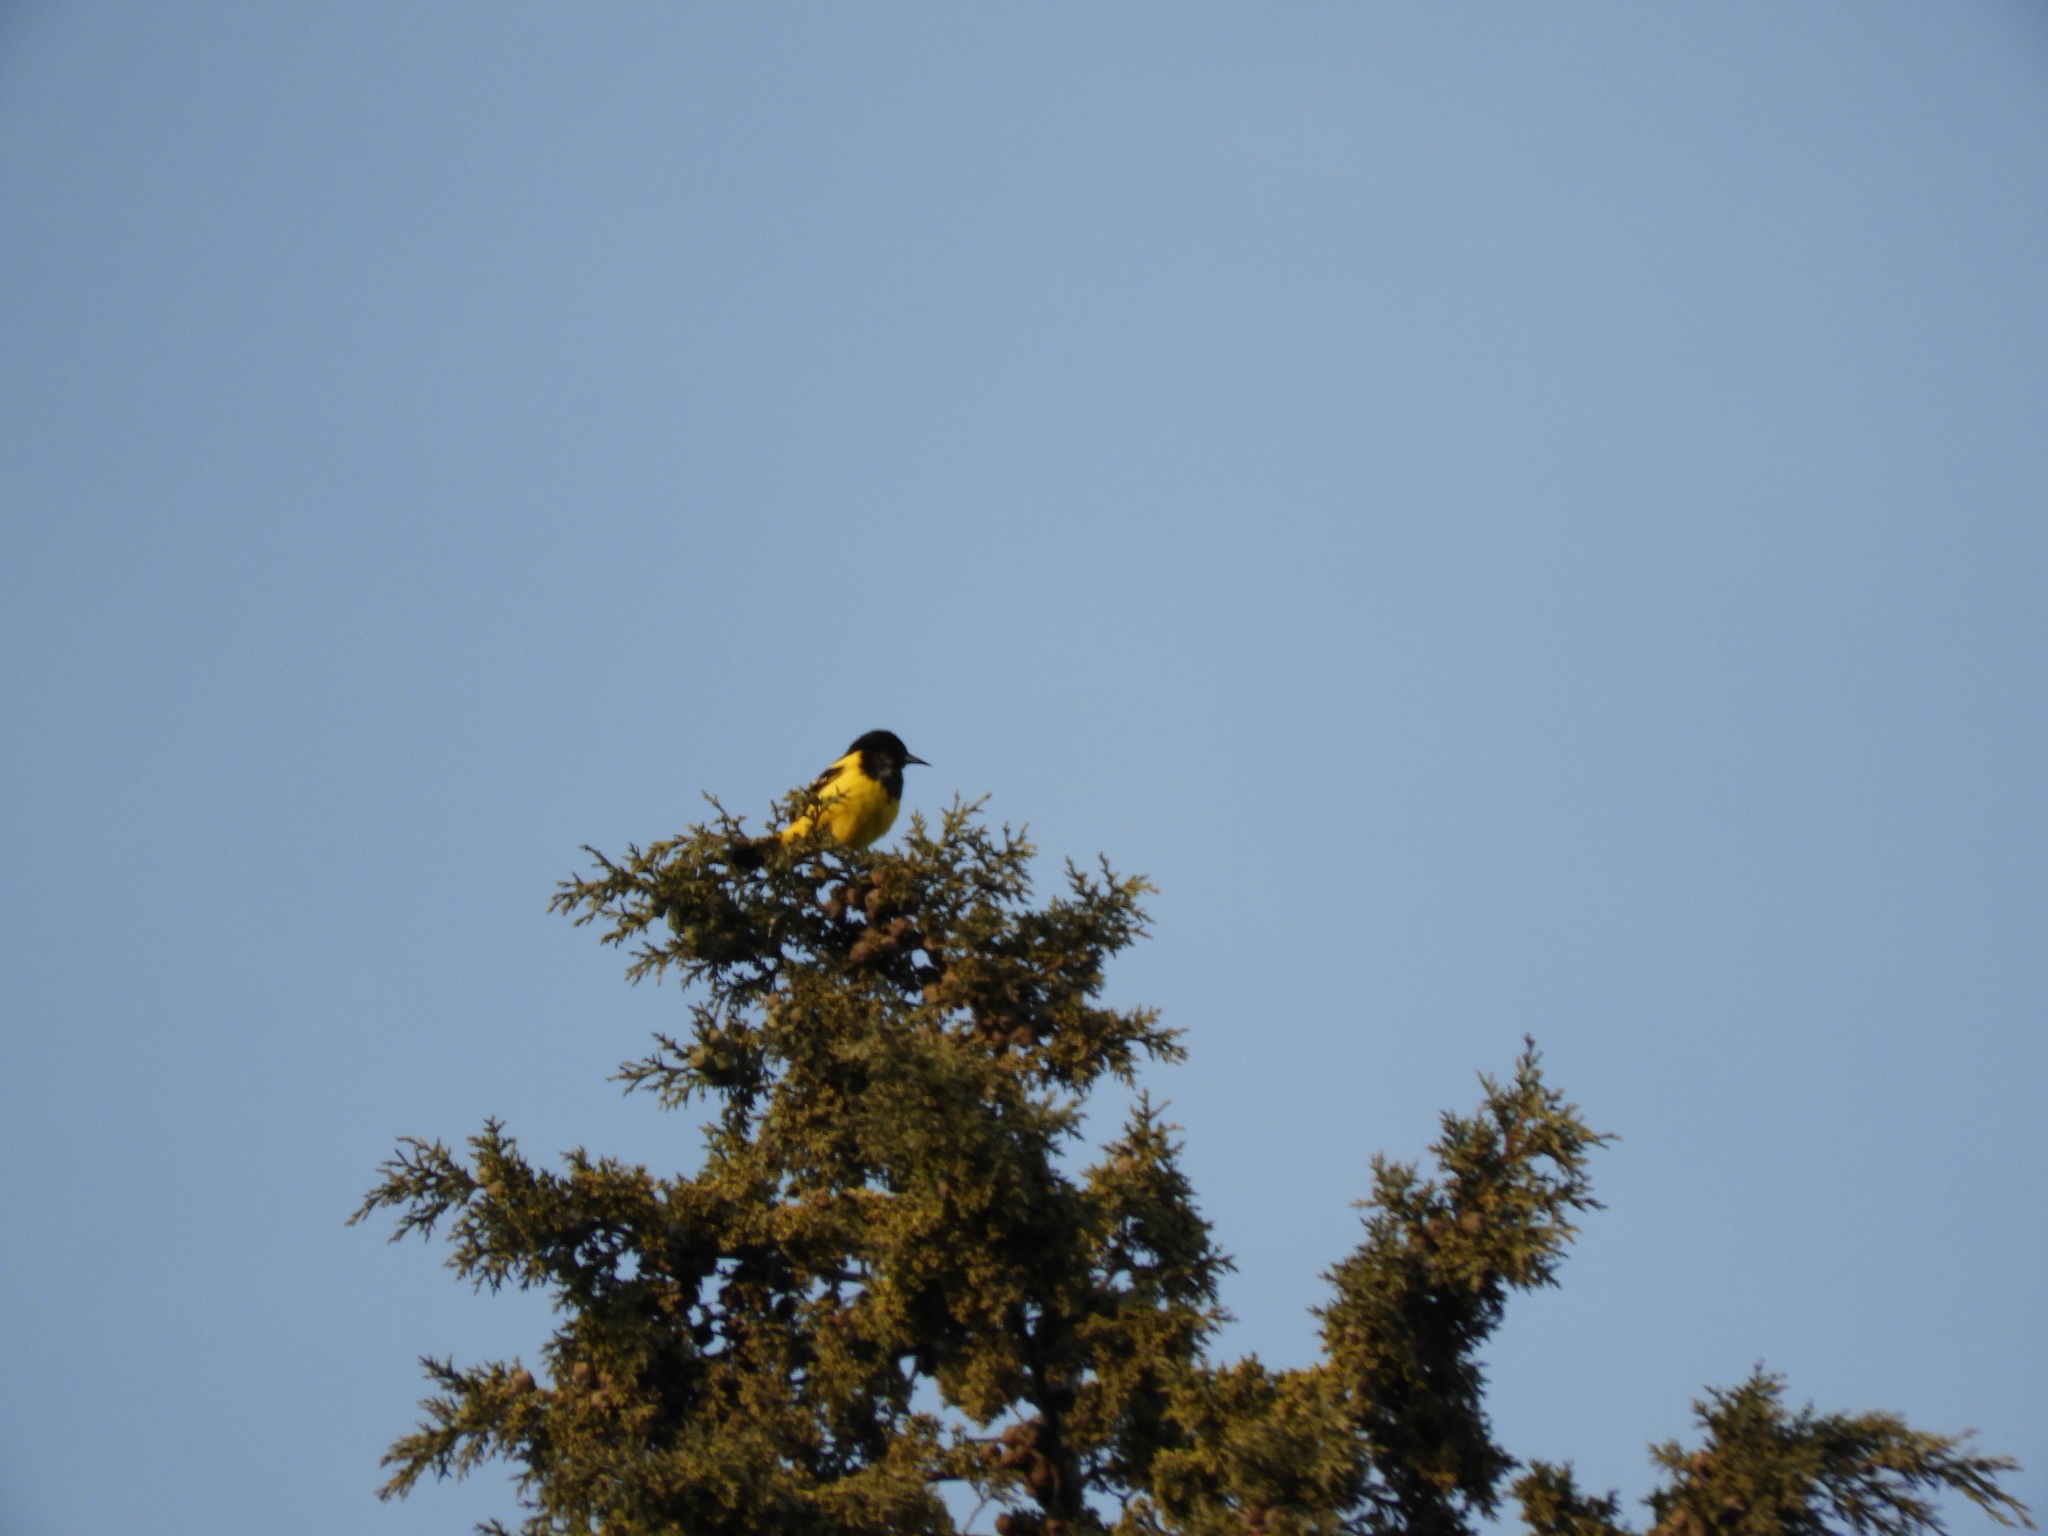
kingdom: Animalia
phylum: Chordata
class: Aves
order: Passeriformes
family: Icteridae
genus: Icterus
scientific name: Icterus parisorum
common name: Scott's oriole
